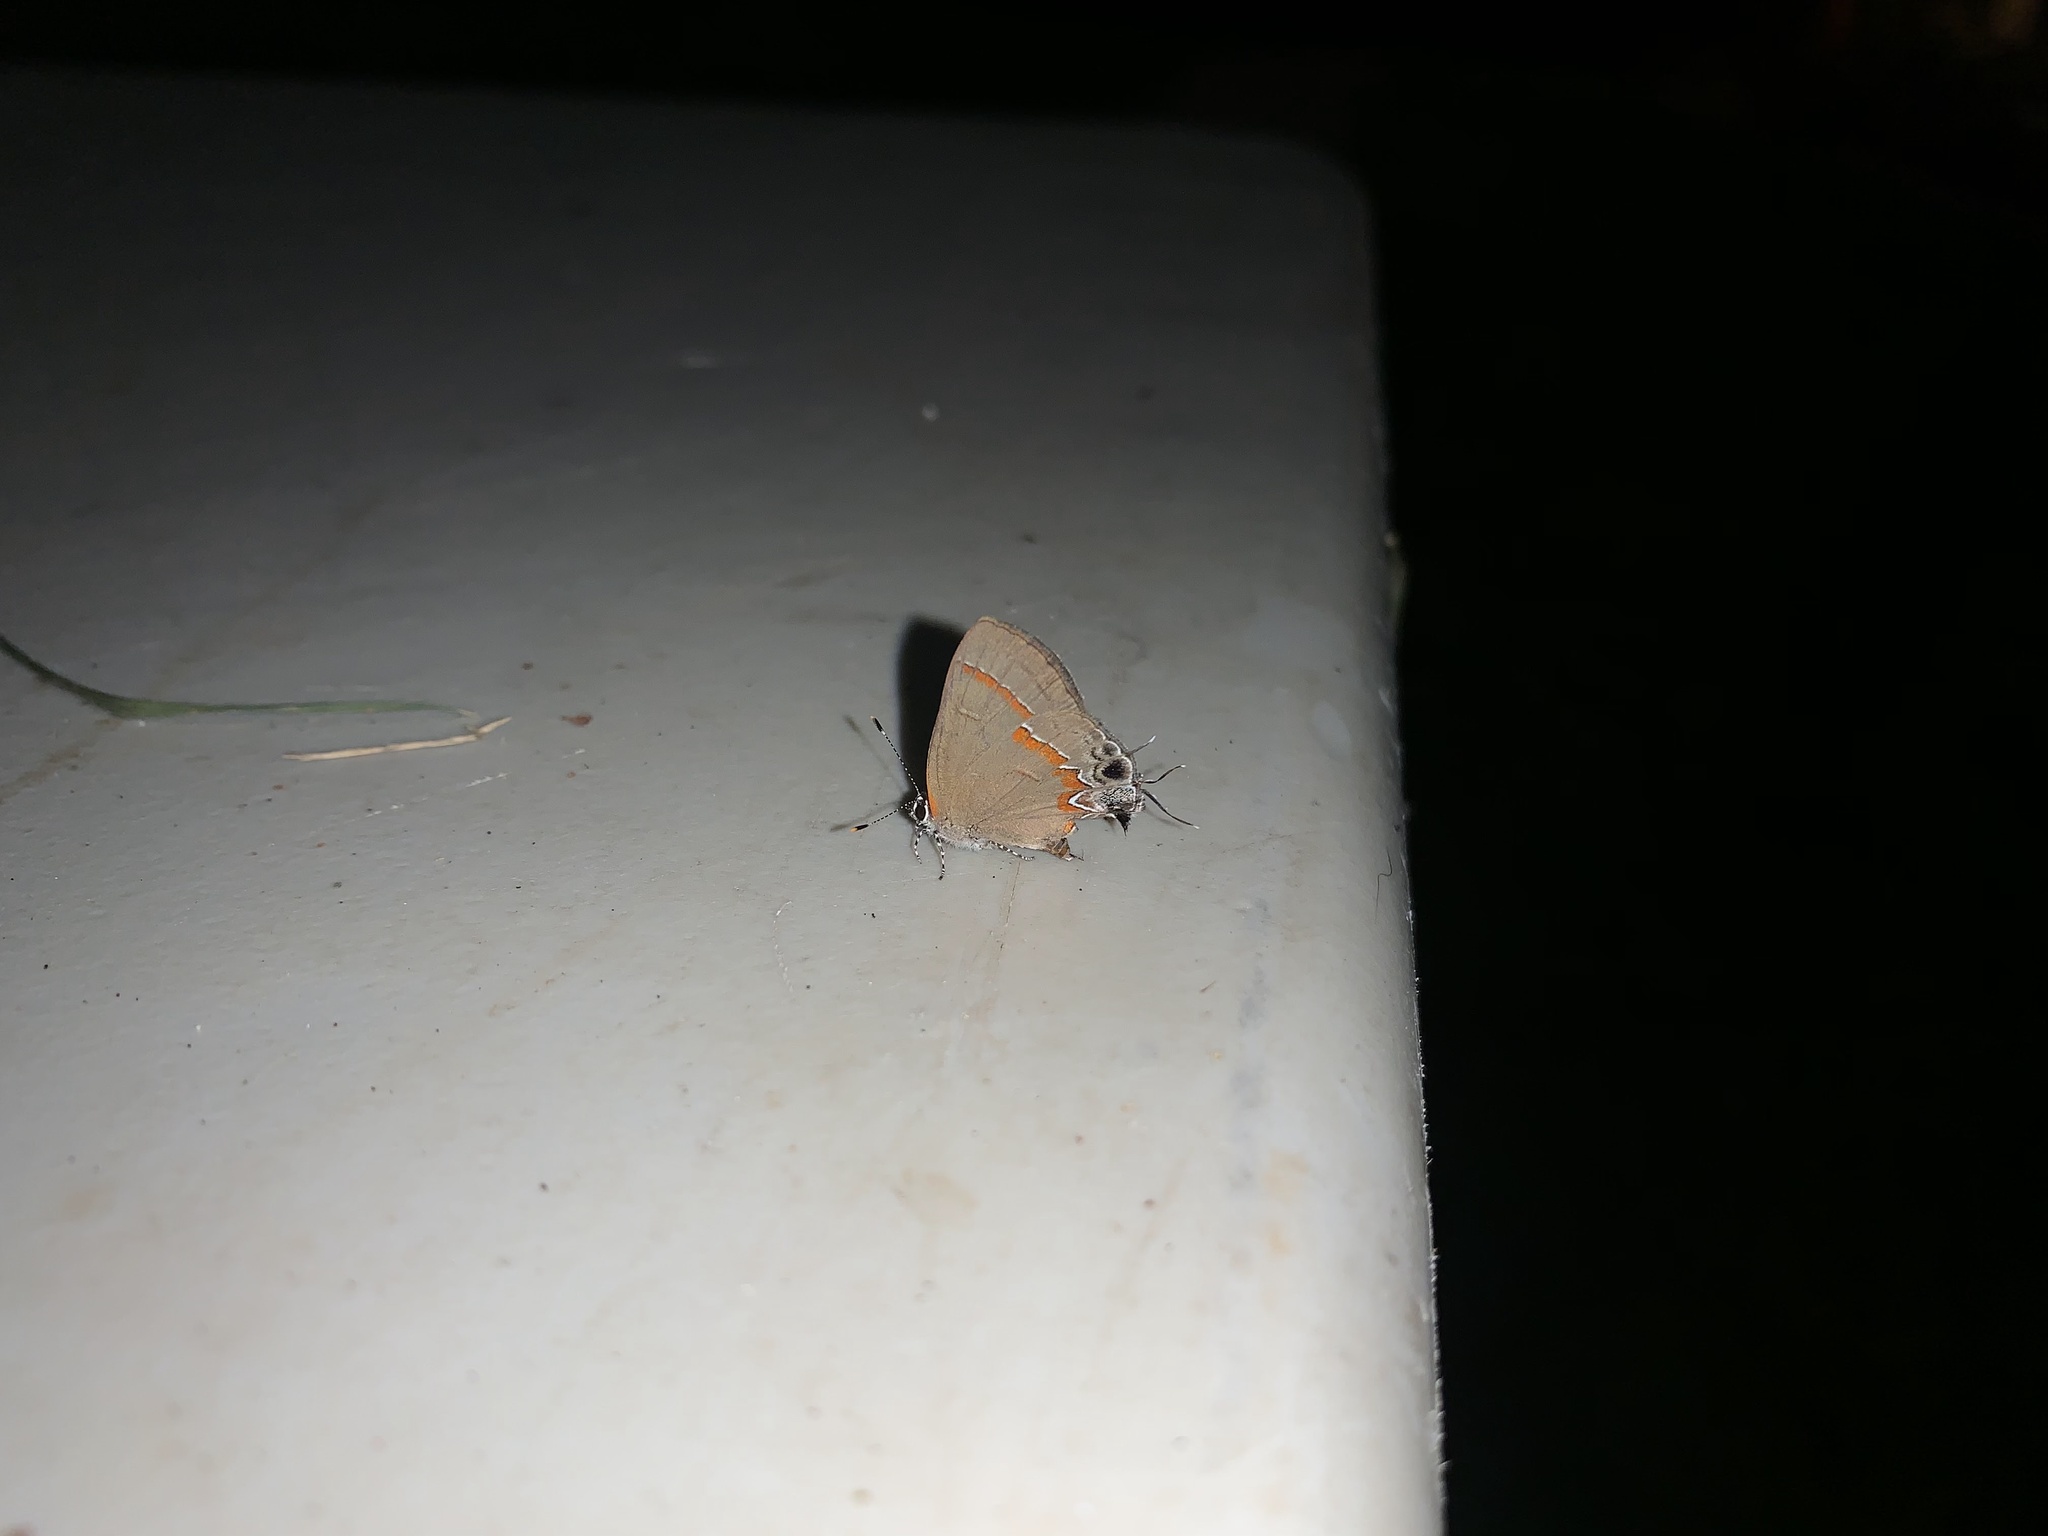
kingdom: Animalia
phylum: Arthropoda
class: Insecta
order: Lepidoptera
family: Lycaenidae
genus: Calycopis
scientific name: Calycopis cecrops
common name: Red-banded hairstreak
